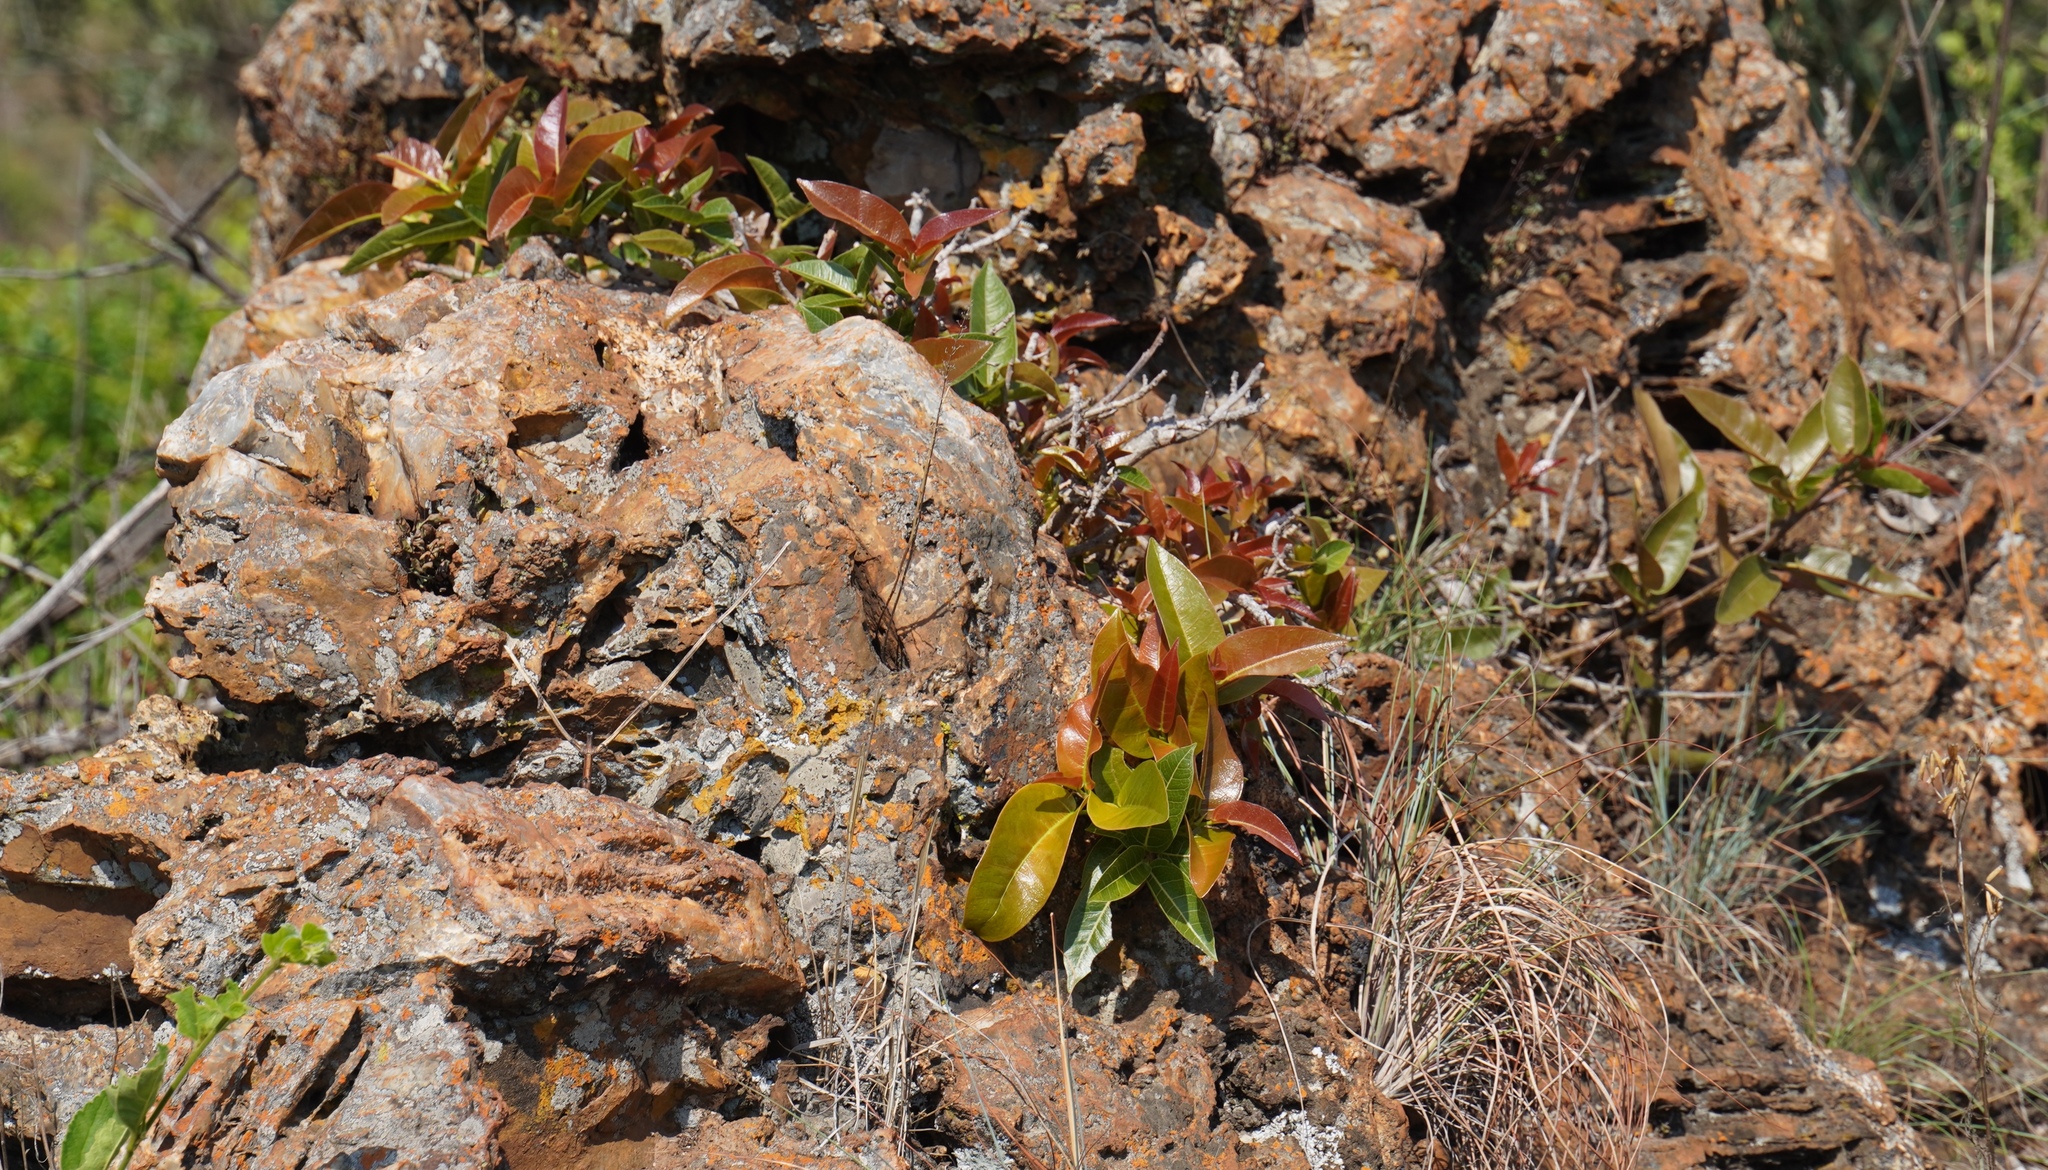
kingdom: Plantae
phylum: Tracheophyta
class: Magnoliopsida
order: Rosales
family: Moraceae
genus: Ficus
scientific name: Ficus ingens
